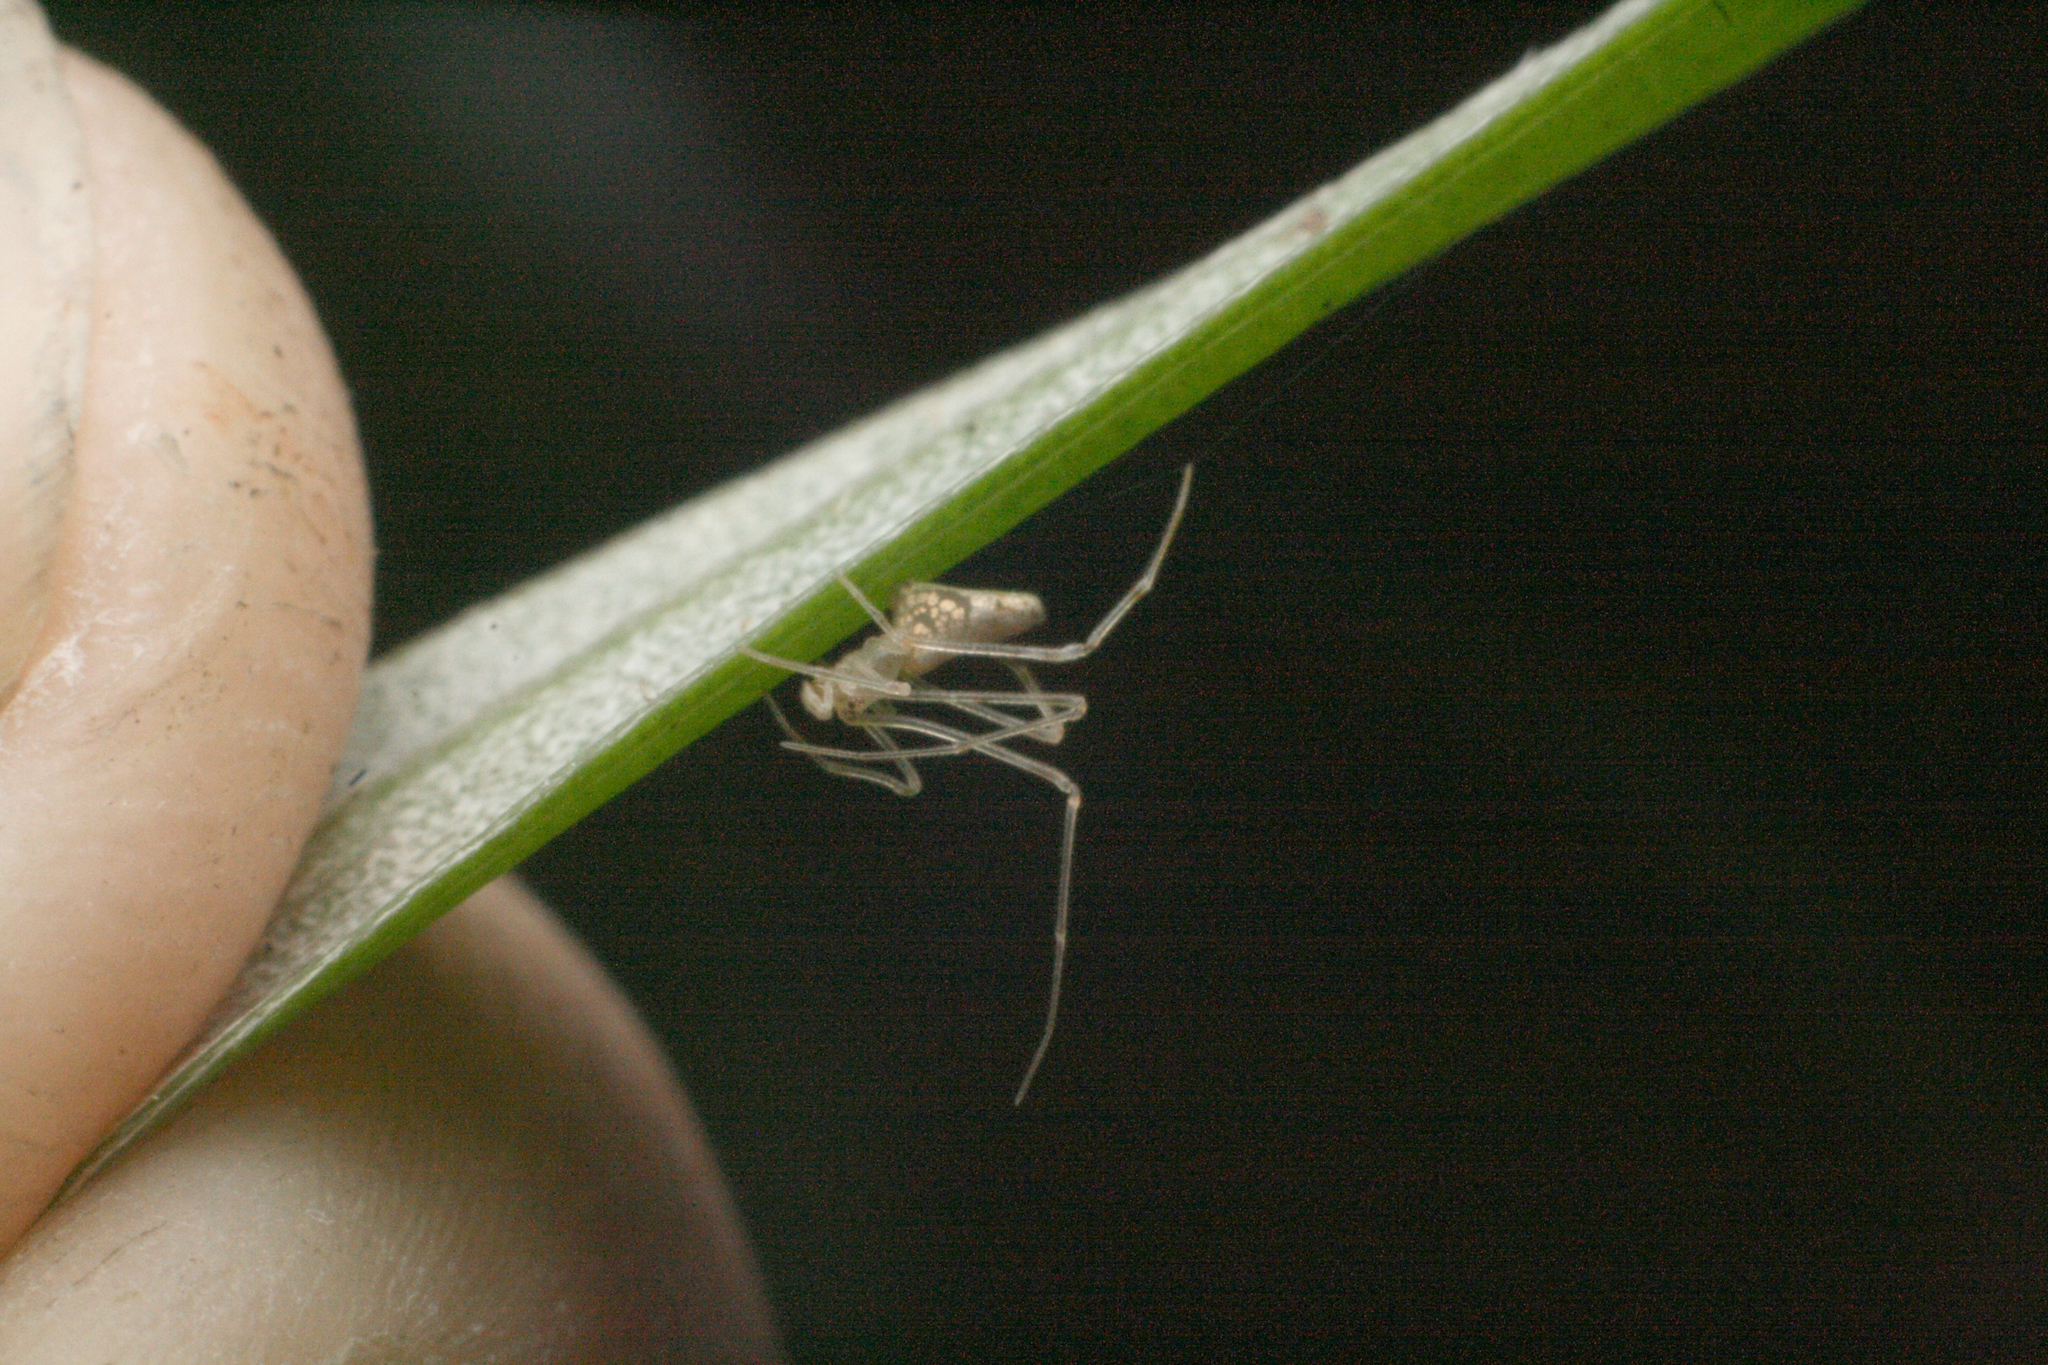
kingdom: Animalia
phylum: Arthropoda
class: Arachnida
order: Araneae
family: Theridiidae
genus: Rhomphaea
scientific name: Rhomphaea urquharti
